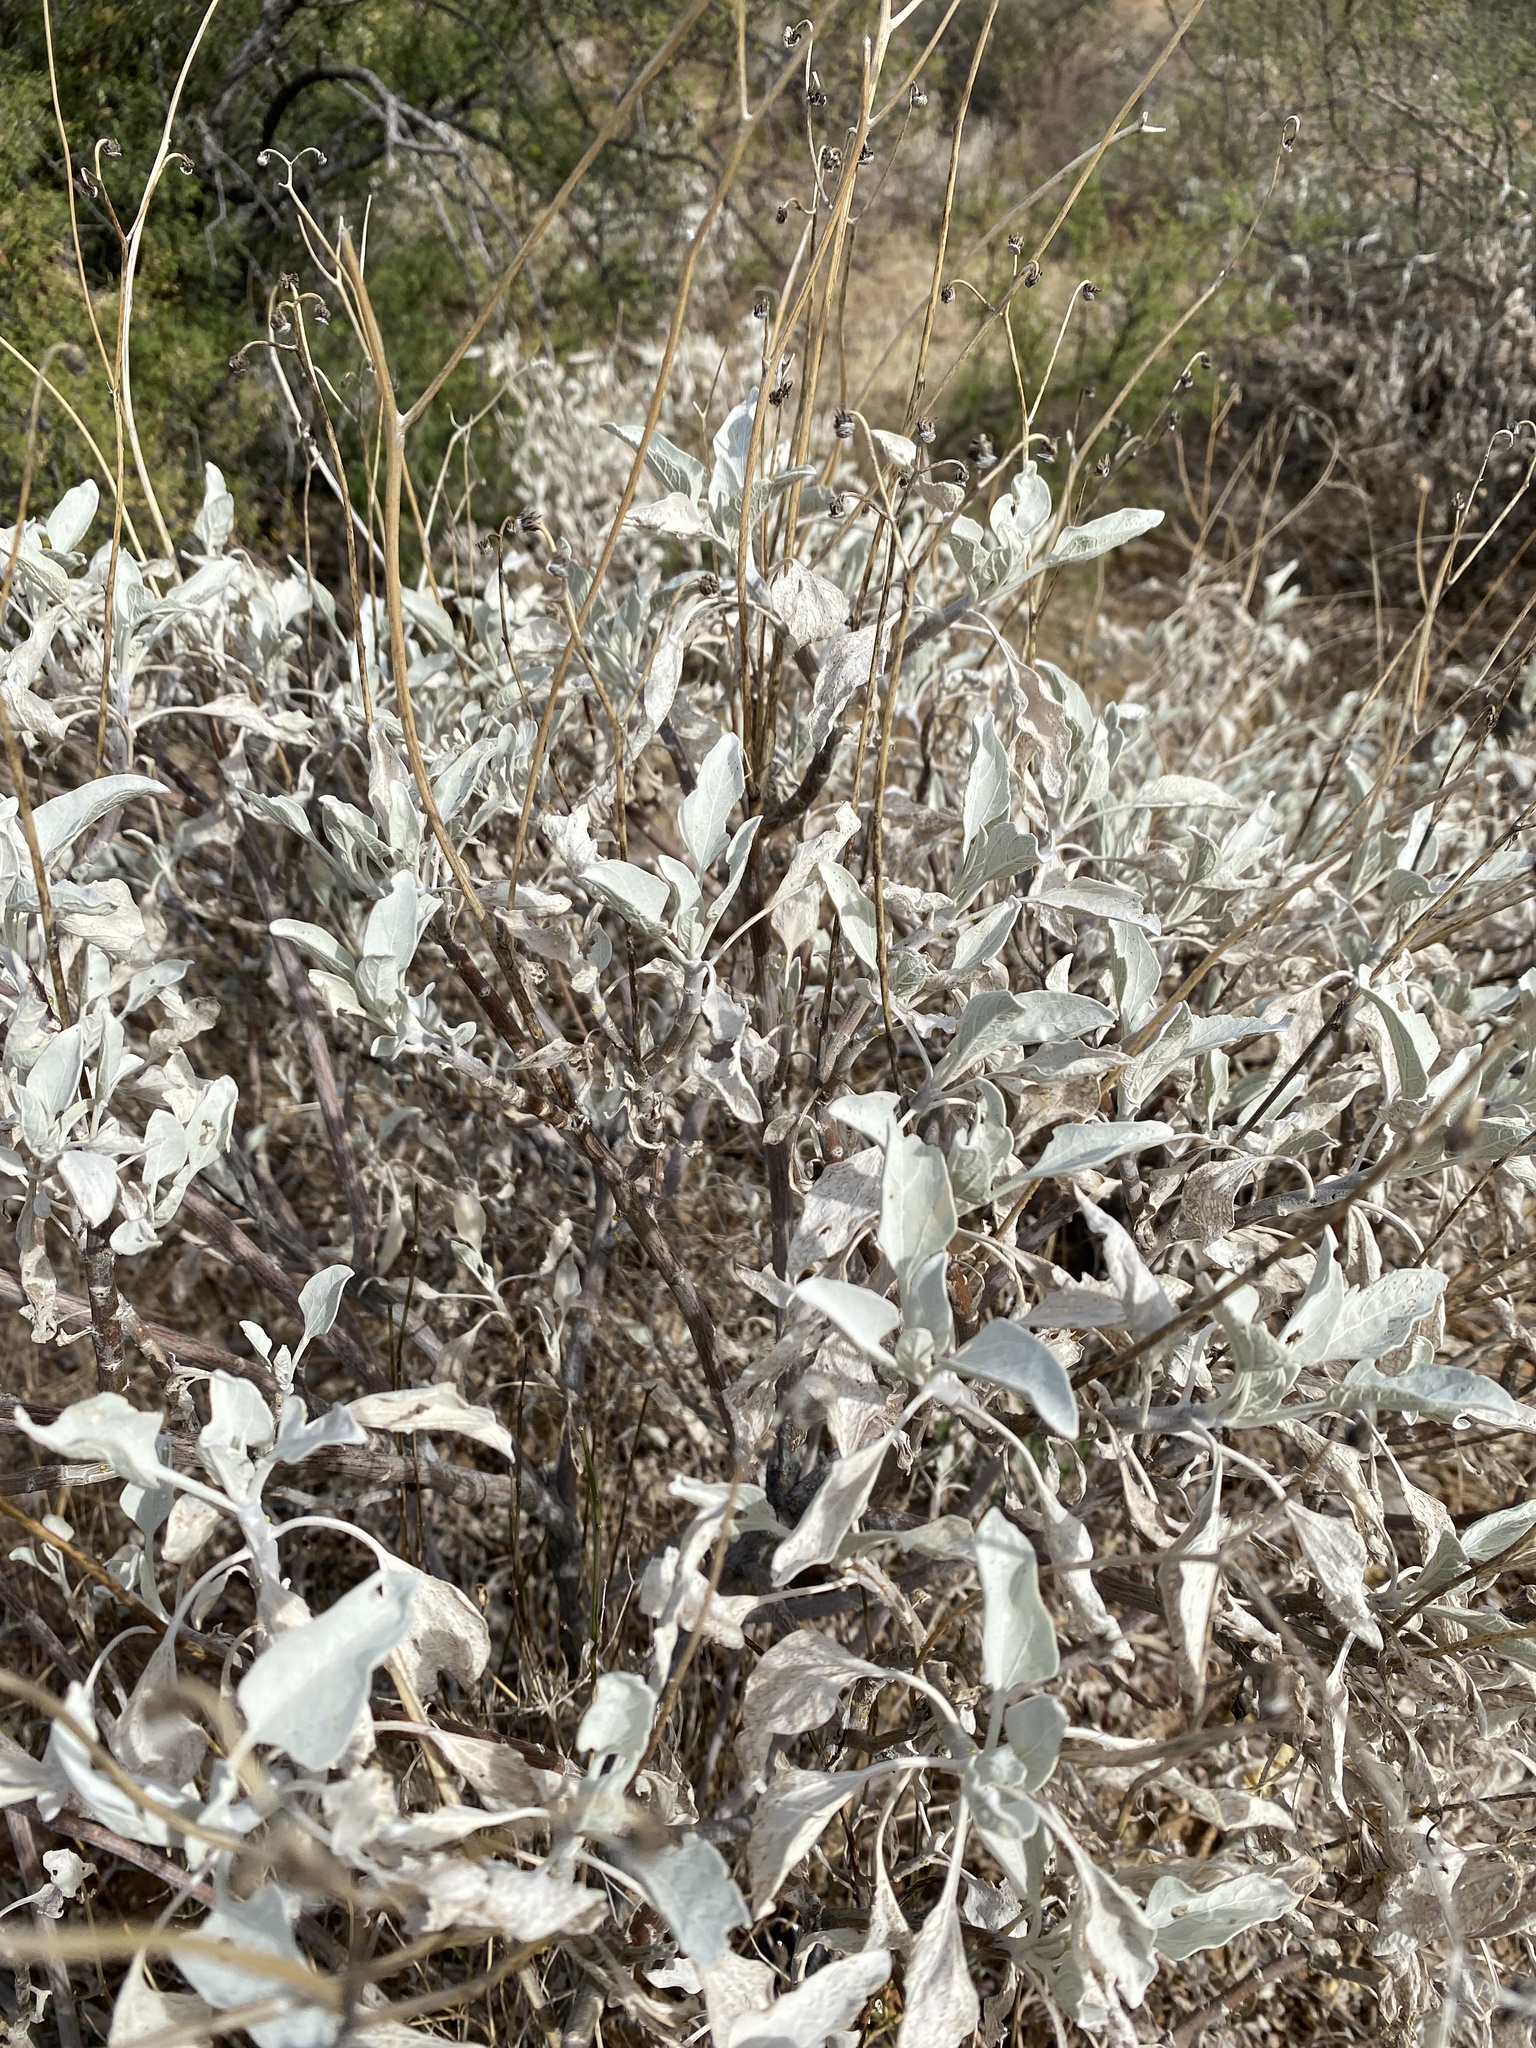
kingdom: Plantae
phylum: Tracheophyta
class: Magnoliopsida
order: Asterales
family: Asteraceae
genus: Encelia
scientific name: Encelia farinosa
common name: Brittlebush
